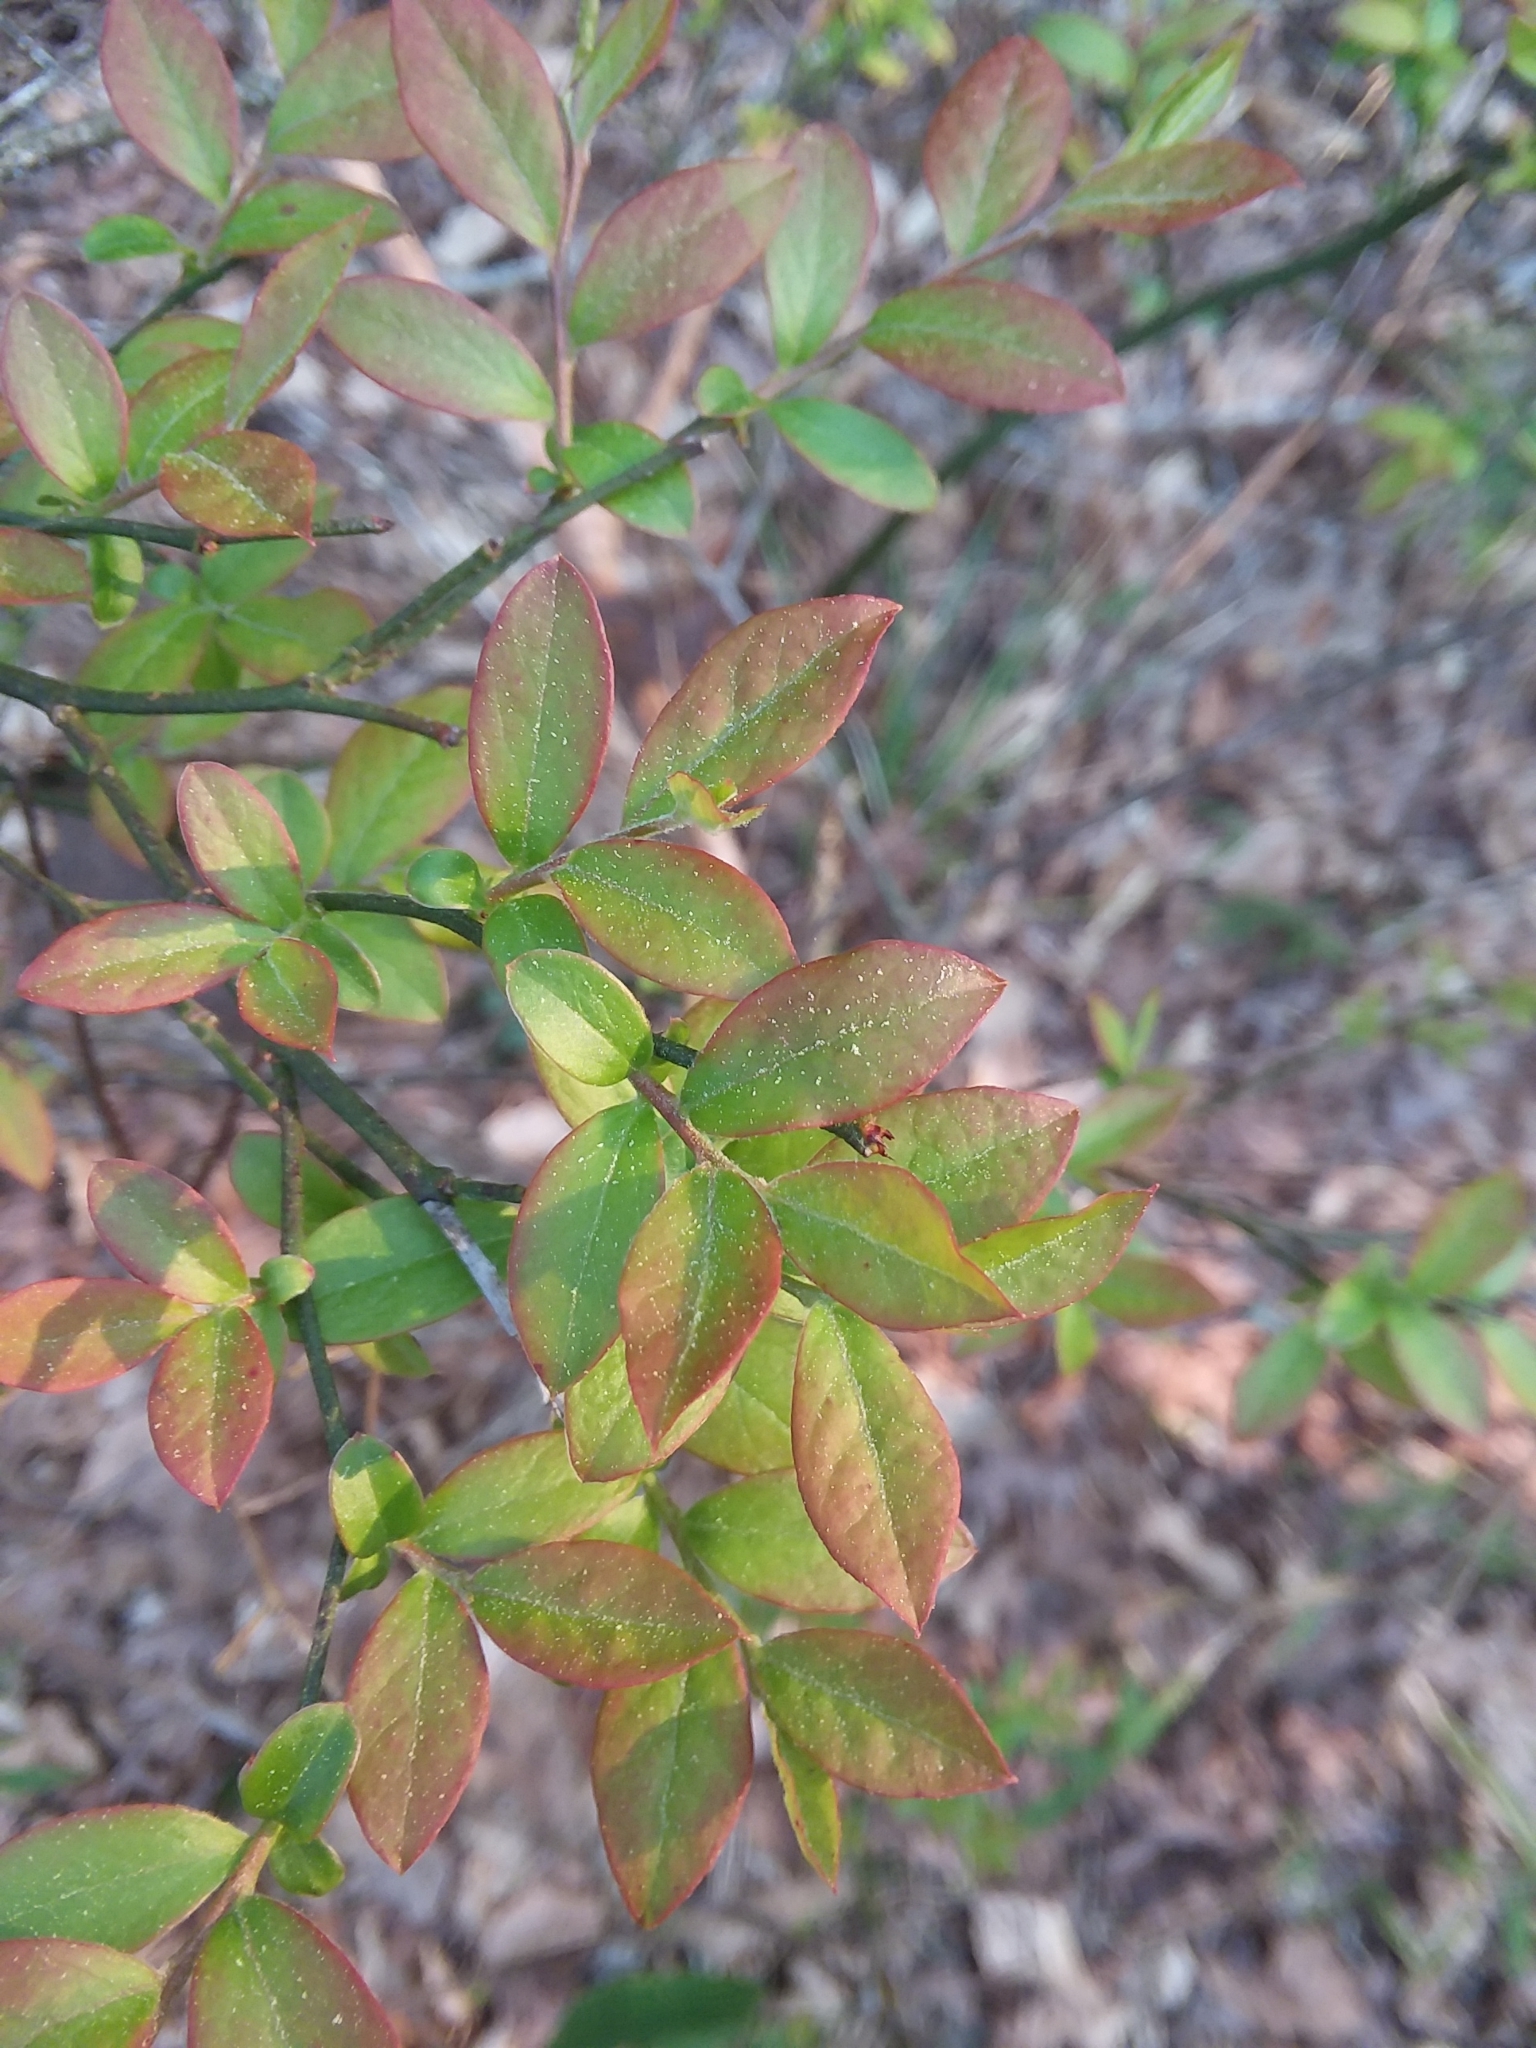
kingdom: Plantae
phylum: Tracheophyta
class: Magnoliopsida
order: Ericales
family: Ericaceae
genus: Vaccinium
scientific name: Vaccinium corymbosum
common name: Blueberry
